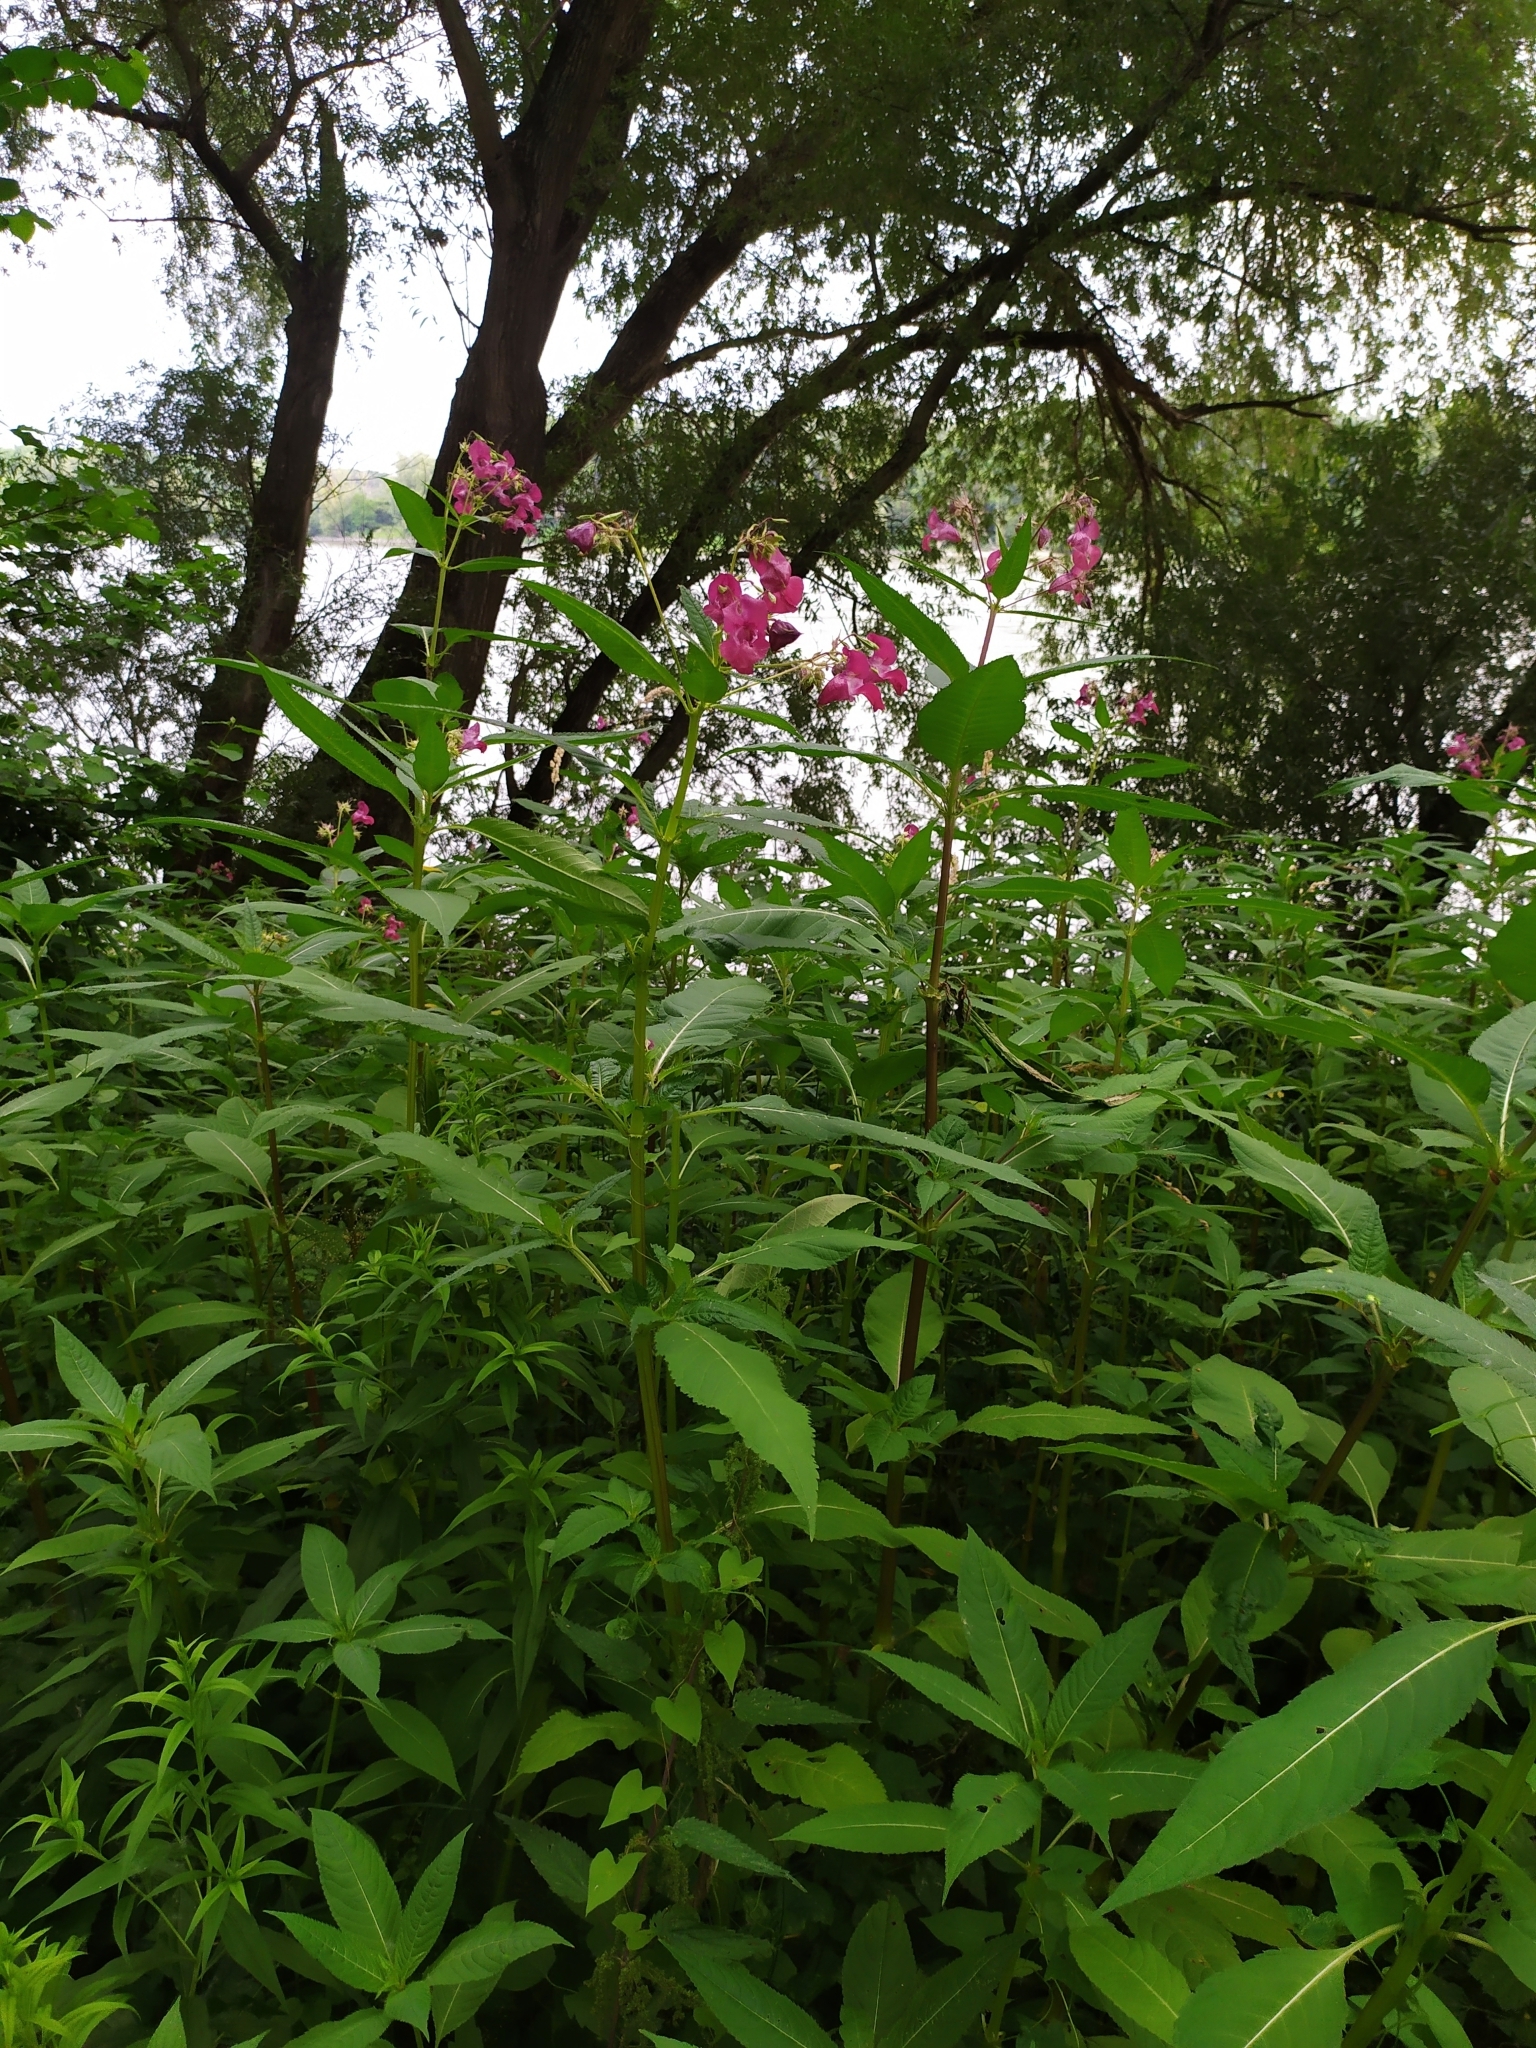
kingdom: Plantae
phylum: Tracheophyta
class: Magnoliopsida
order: Ericales
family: Balsaminaceae
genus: Impatiens
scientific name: Impatiens glandulifera
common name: Himalayan balsam
